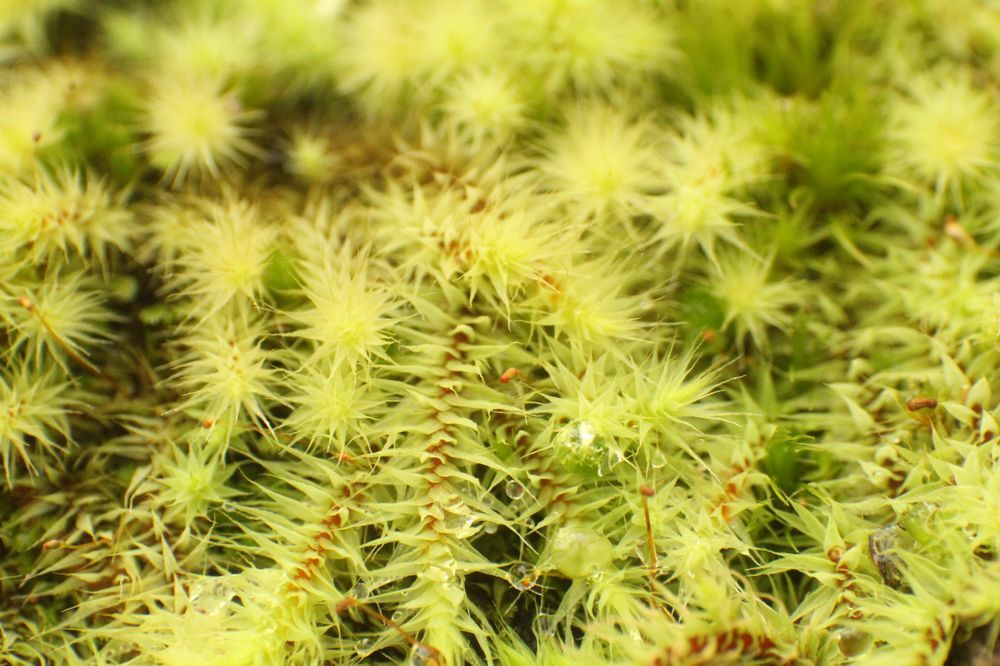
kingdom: Plantae
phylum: Bryophyta
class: Bryopsida
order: Bartramiales
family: Bartramiaceae
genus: Breutelia
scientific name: Breutelia affinis
